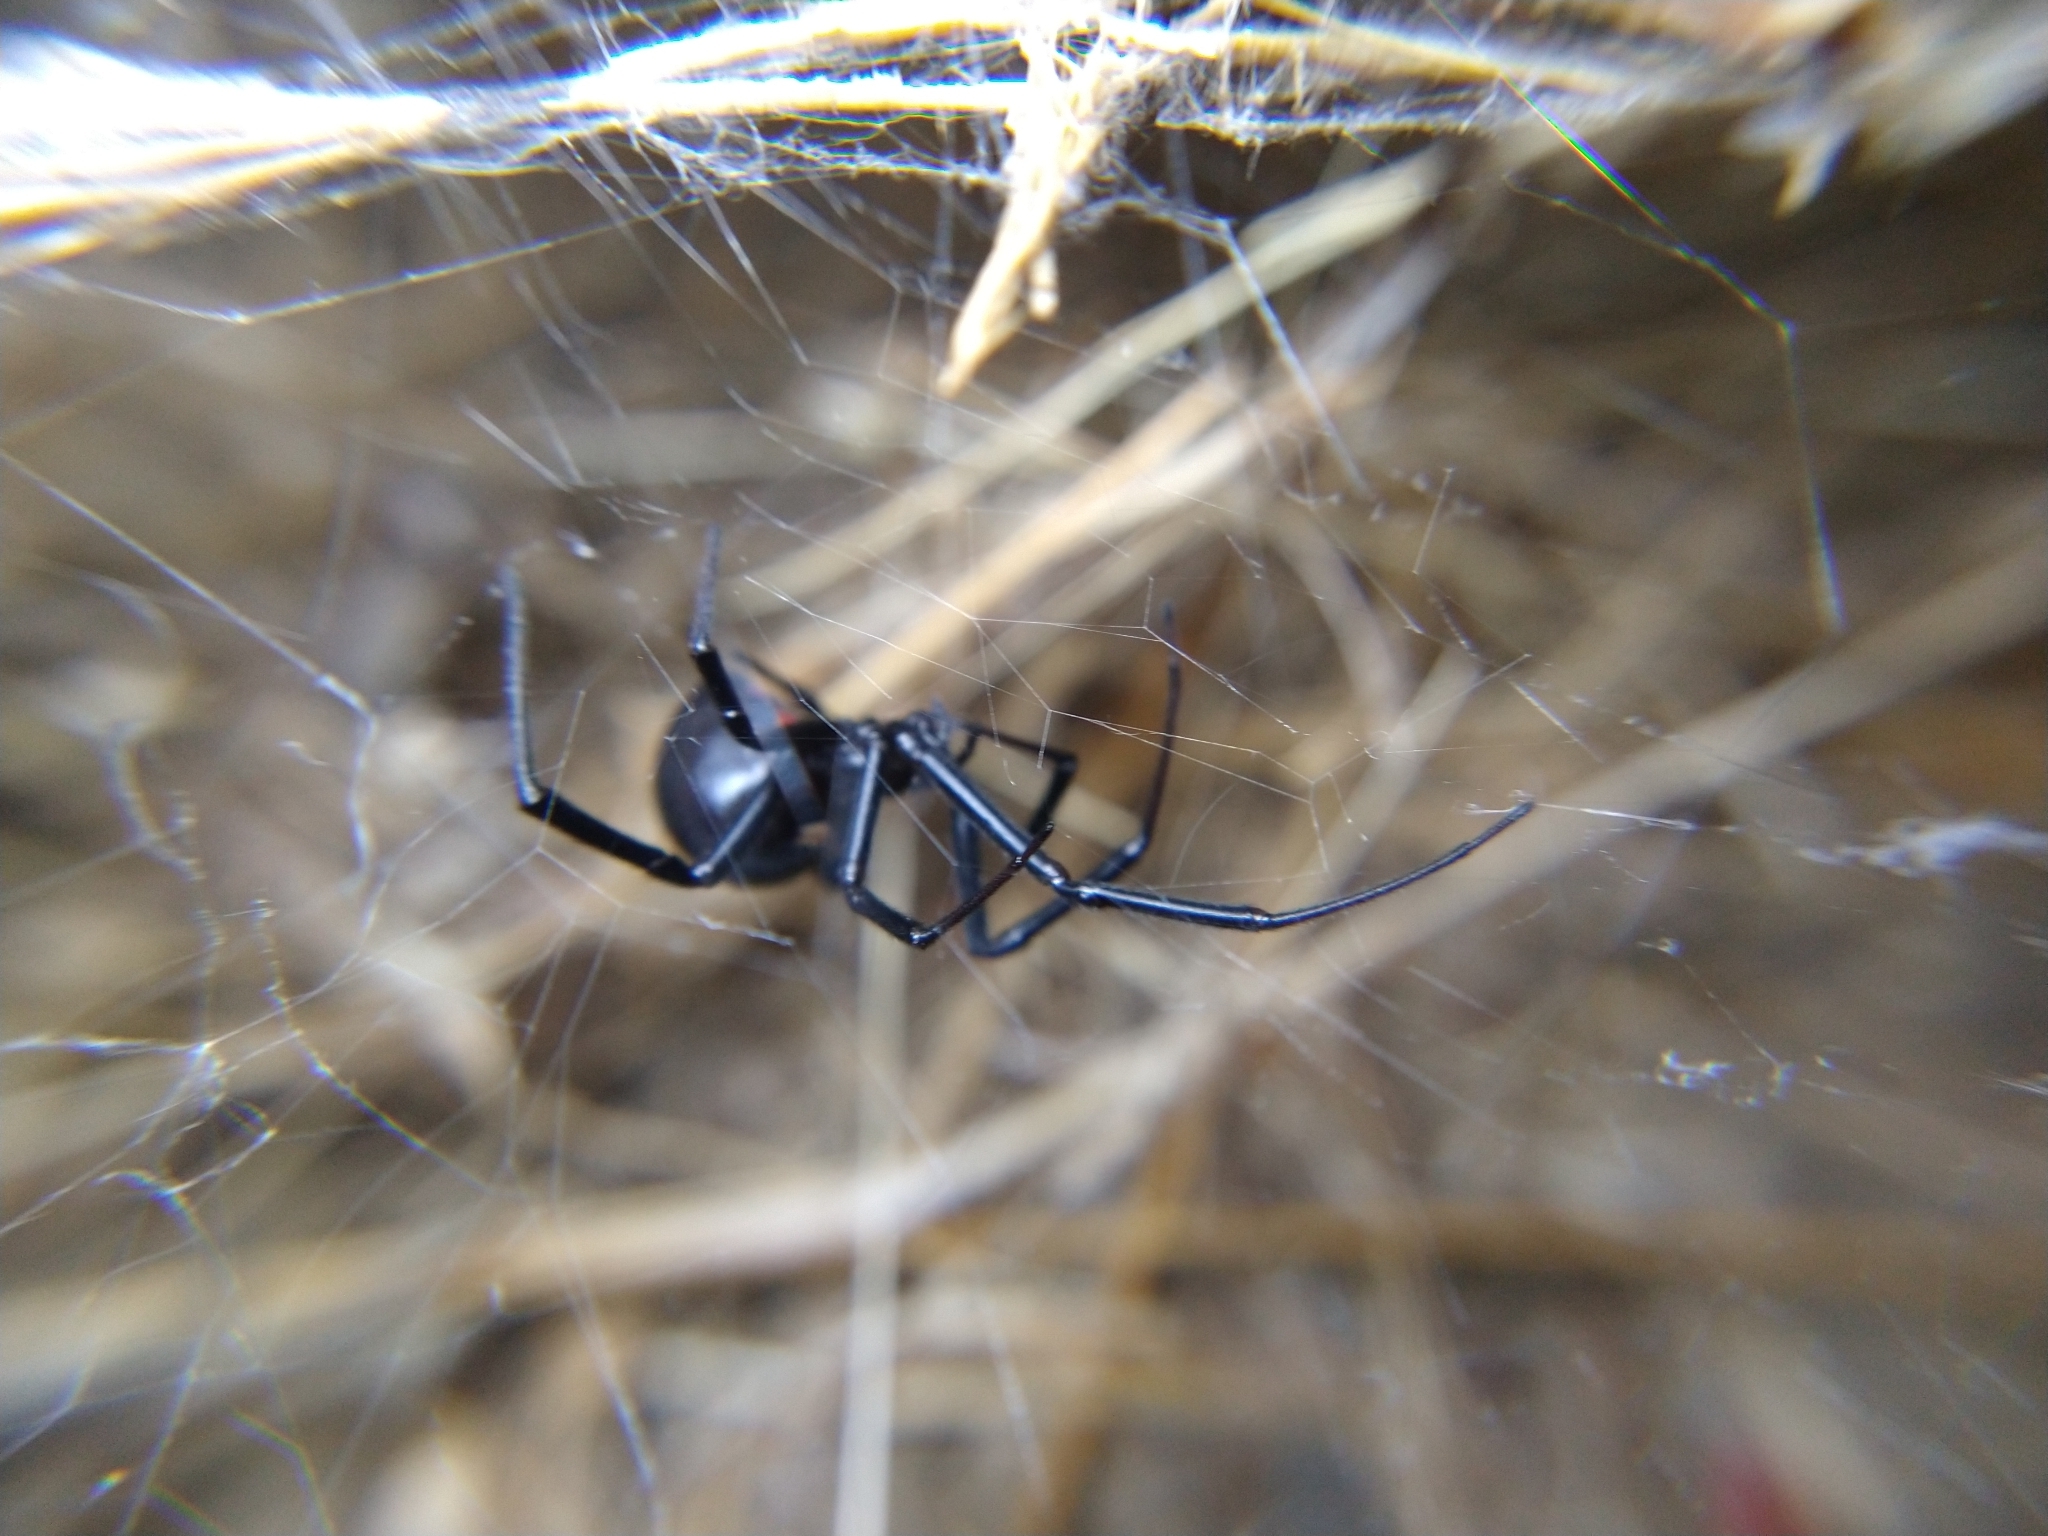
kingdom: Animalia
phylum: Arthropoda
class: Arachnida
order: Araneae
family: Theridiidae
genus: Latrodectus
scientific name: Latrodectus hesperus
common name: Western black widow
